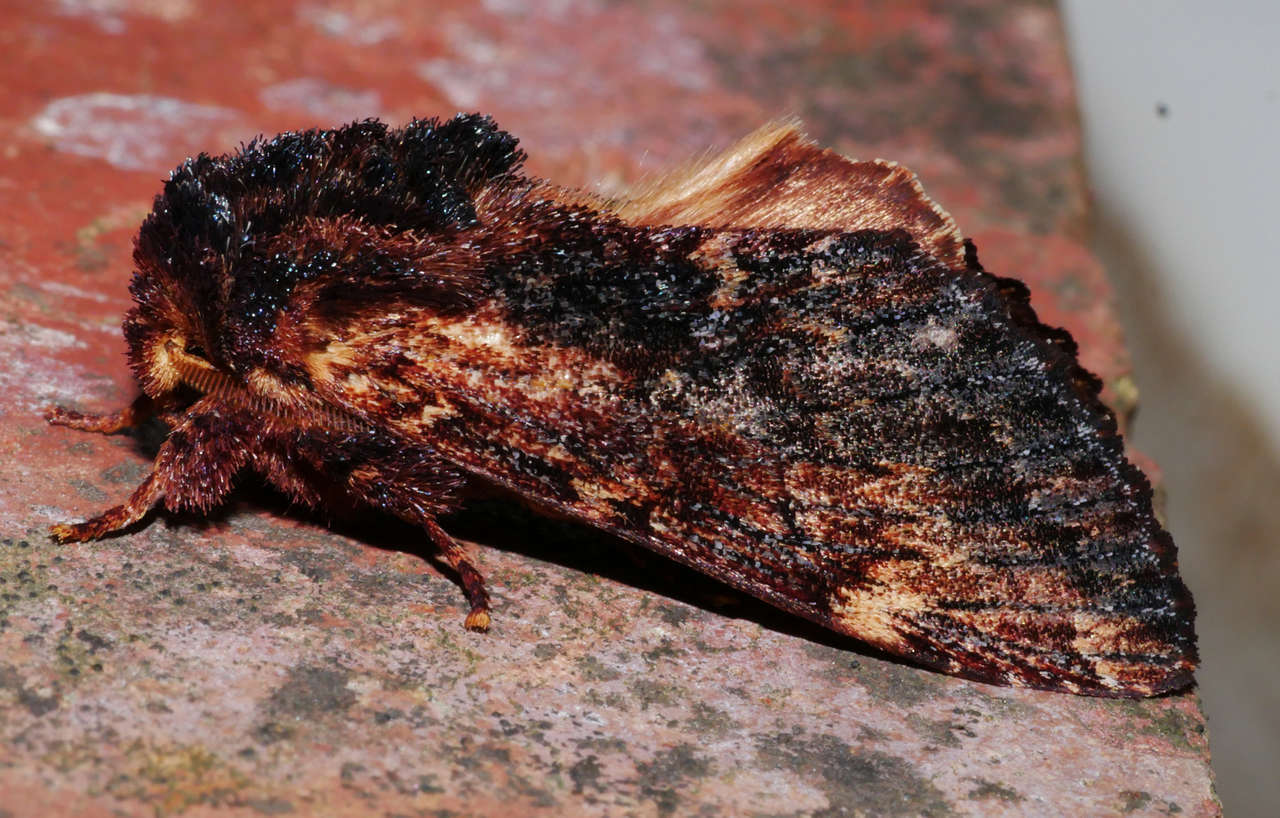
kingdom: Animalia
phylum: Arthropoda
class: Insecta
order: Lepidoptera
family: Notodontidae
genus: Sorama
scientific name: Sorama bicolor
